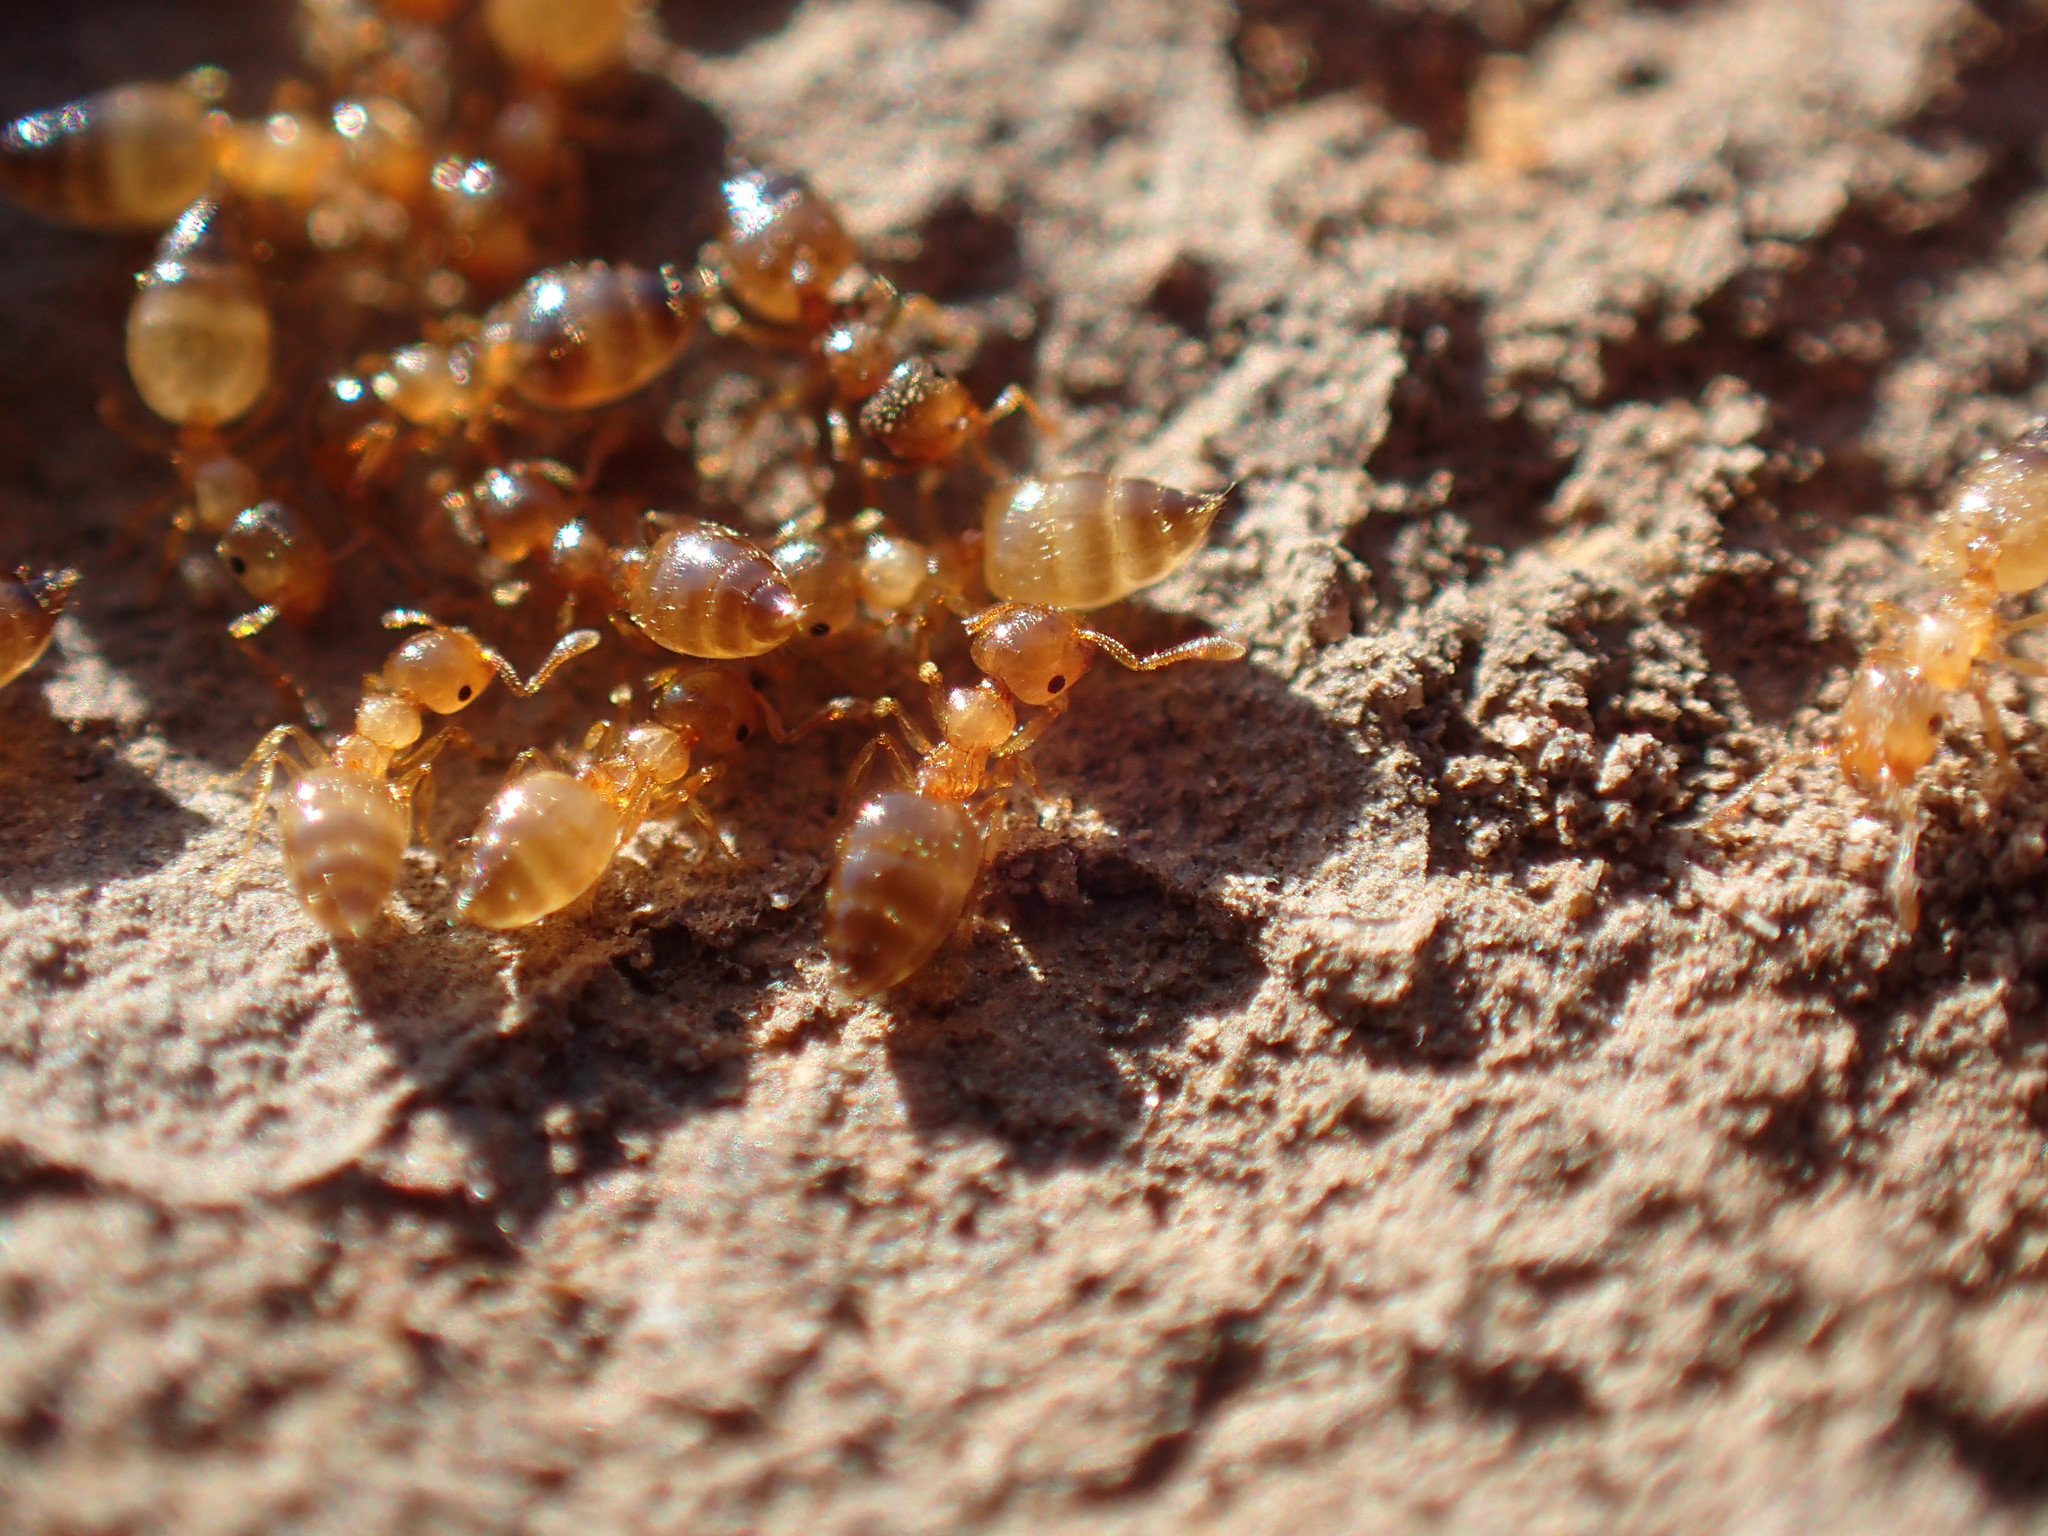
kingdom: Animalia
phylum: Arthropoda
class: Insecta
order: Hymenoptera
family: Formicidae
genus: Crematogaster
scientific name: Crematogaster natalensis
